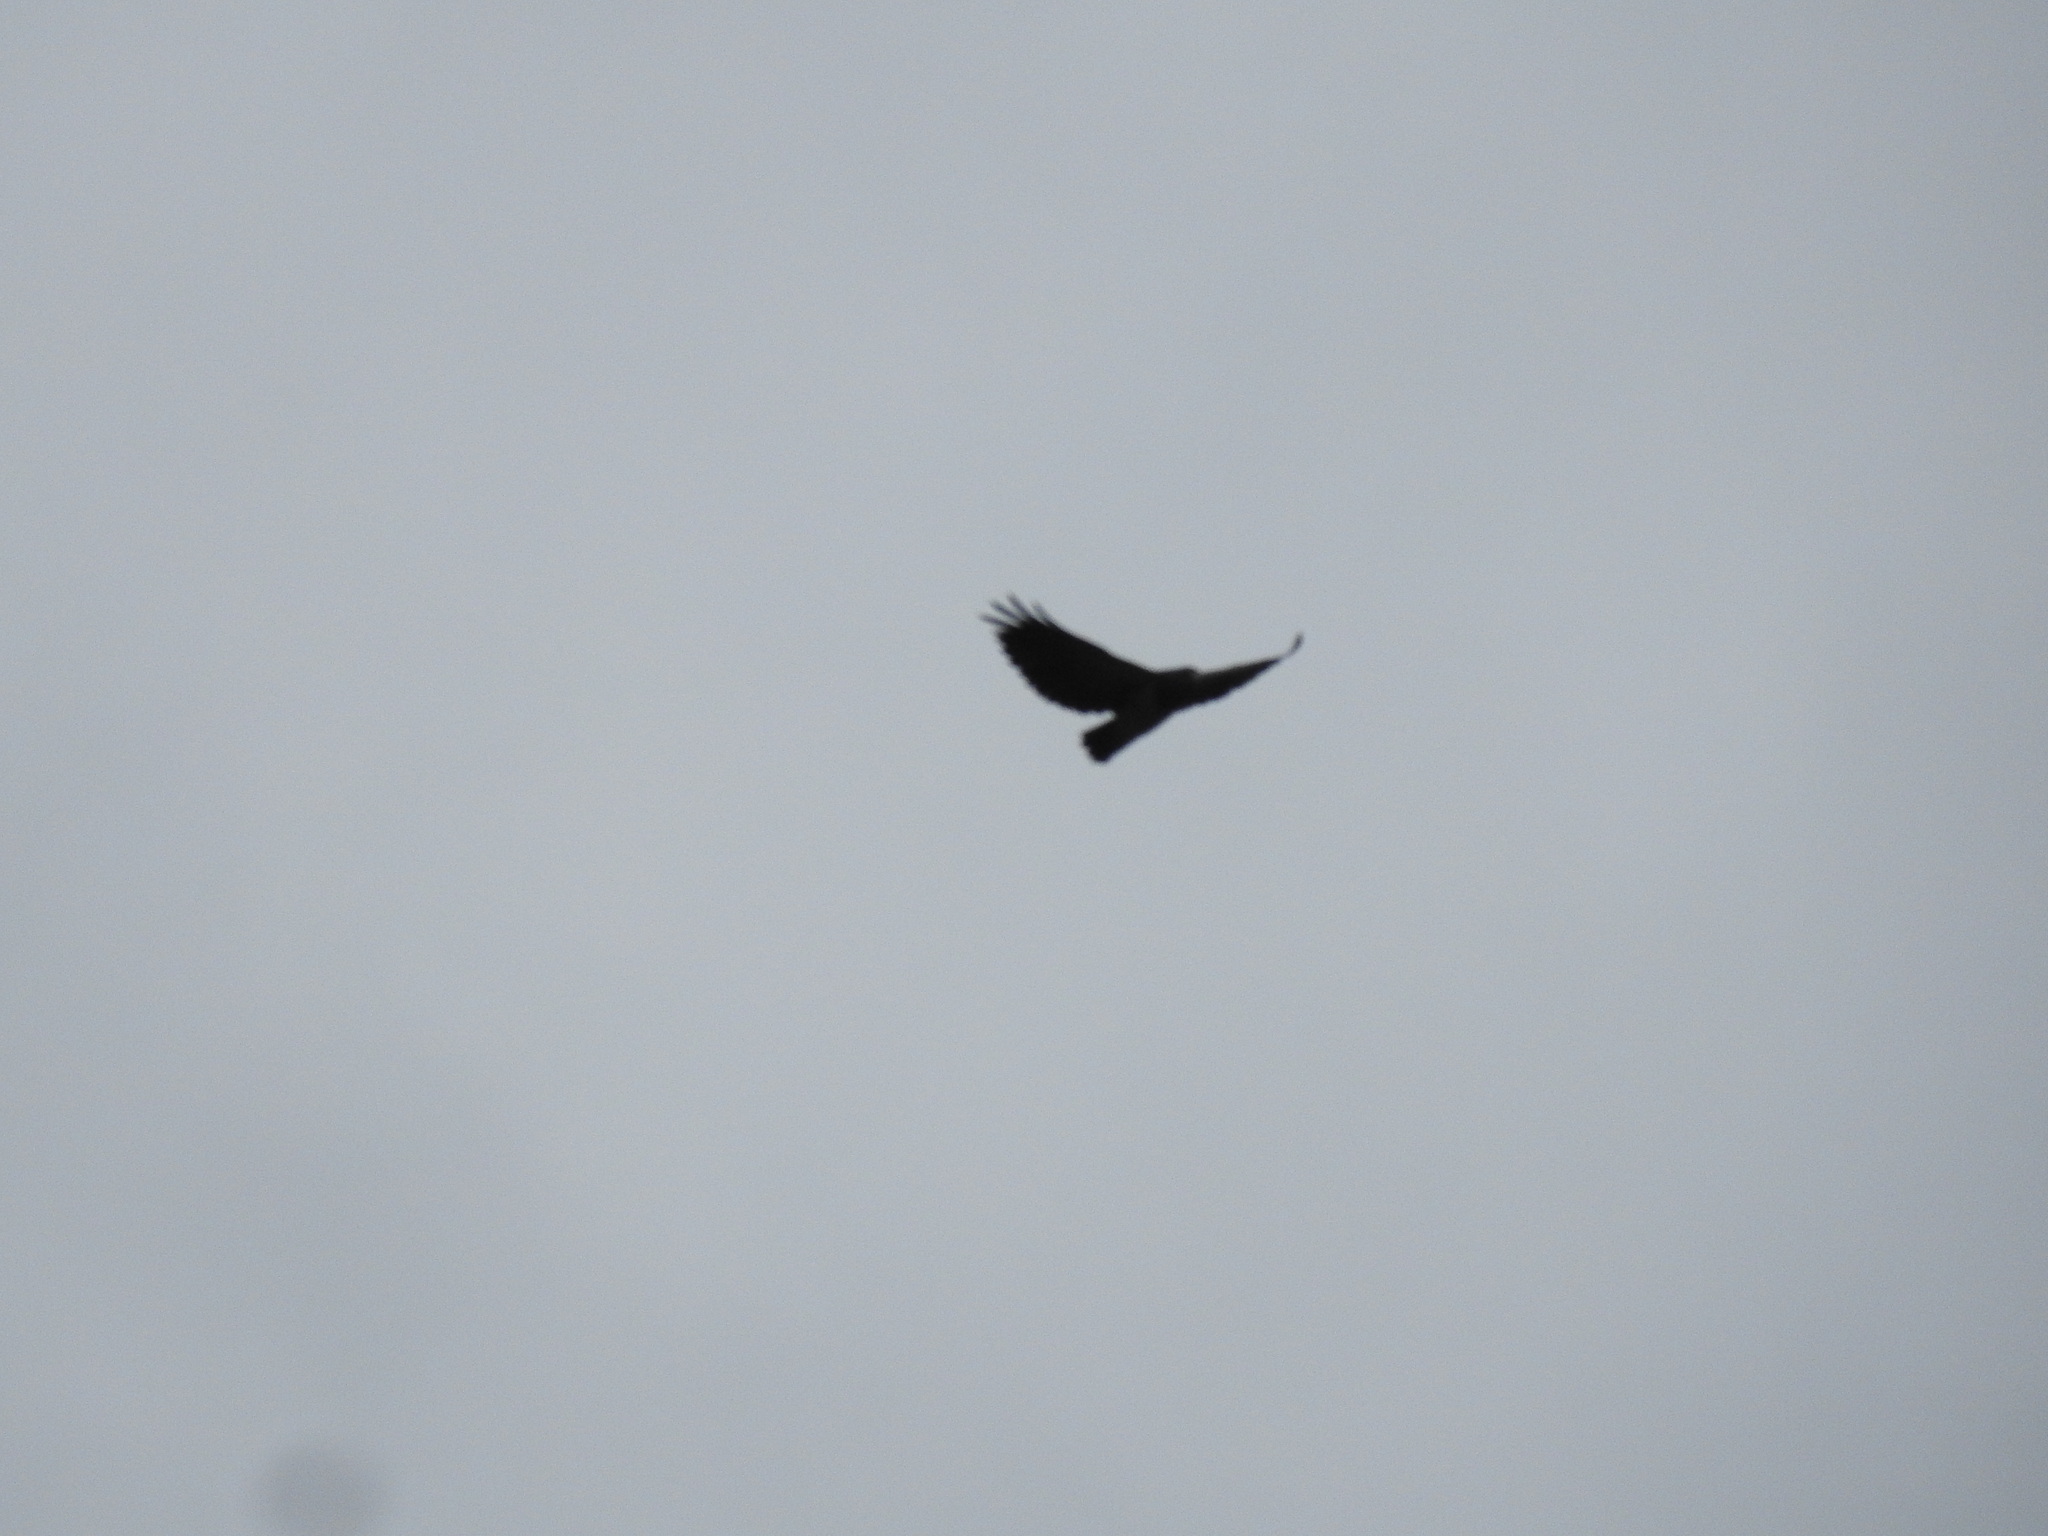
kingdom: Animalia
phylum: Chordata
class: Aves
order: Accipitriformes
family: Accipitridae
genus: Geranoaetus
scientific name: Geranoaetus melanoleucus
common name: Black-chested buzzard-eagle
